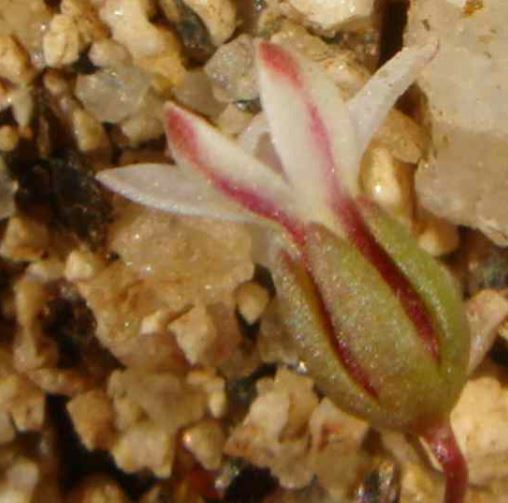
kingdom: Plantae
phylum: Tracheophyta
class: Magnoliopsida
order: Asterales
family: Campanulaceae
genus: Nemacladus
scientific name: Nemacladus breviflorus
